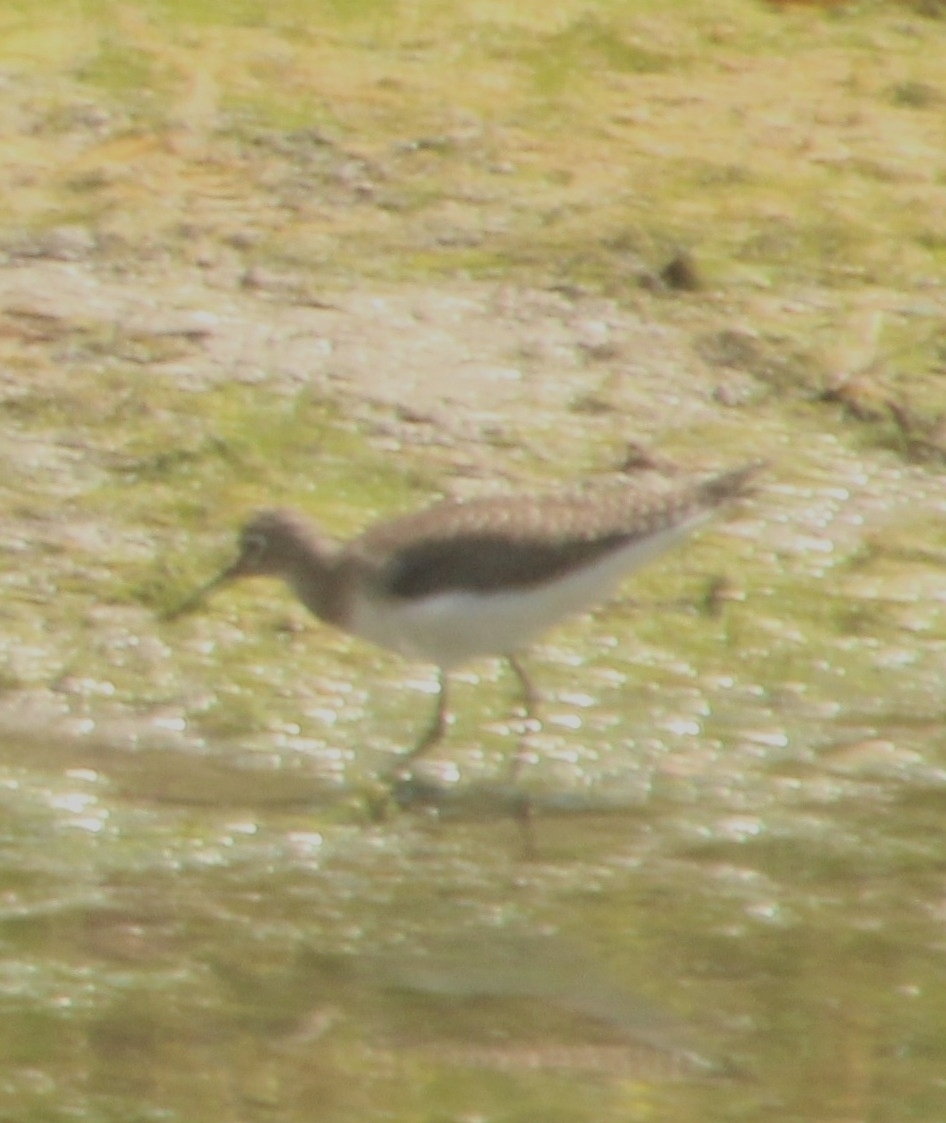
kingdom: Animalia
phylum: Chordata
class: Aves
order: Charadriiformes
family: Scolopacidae
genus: Tringa
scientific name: Tringa solitaria
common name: Solitary sandpiper
